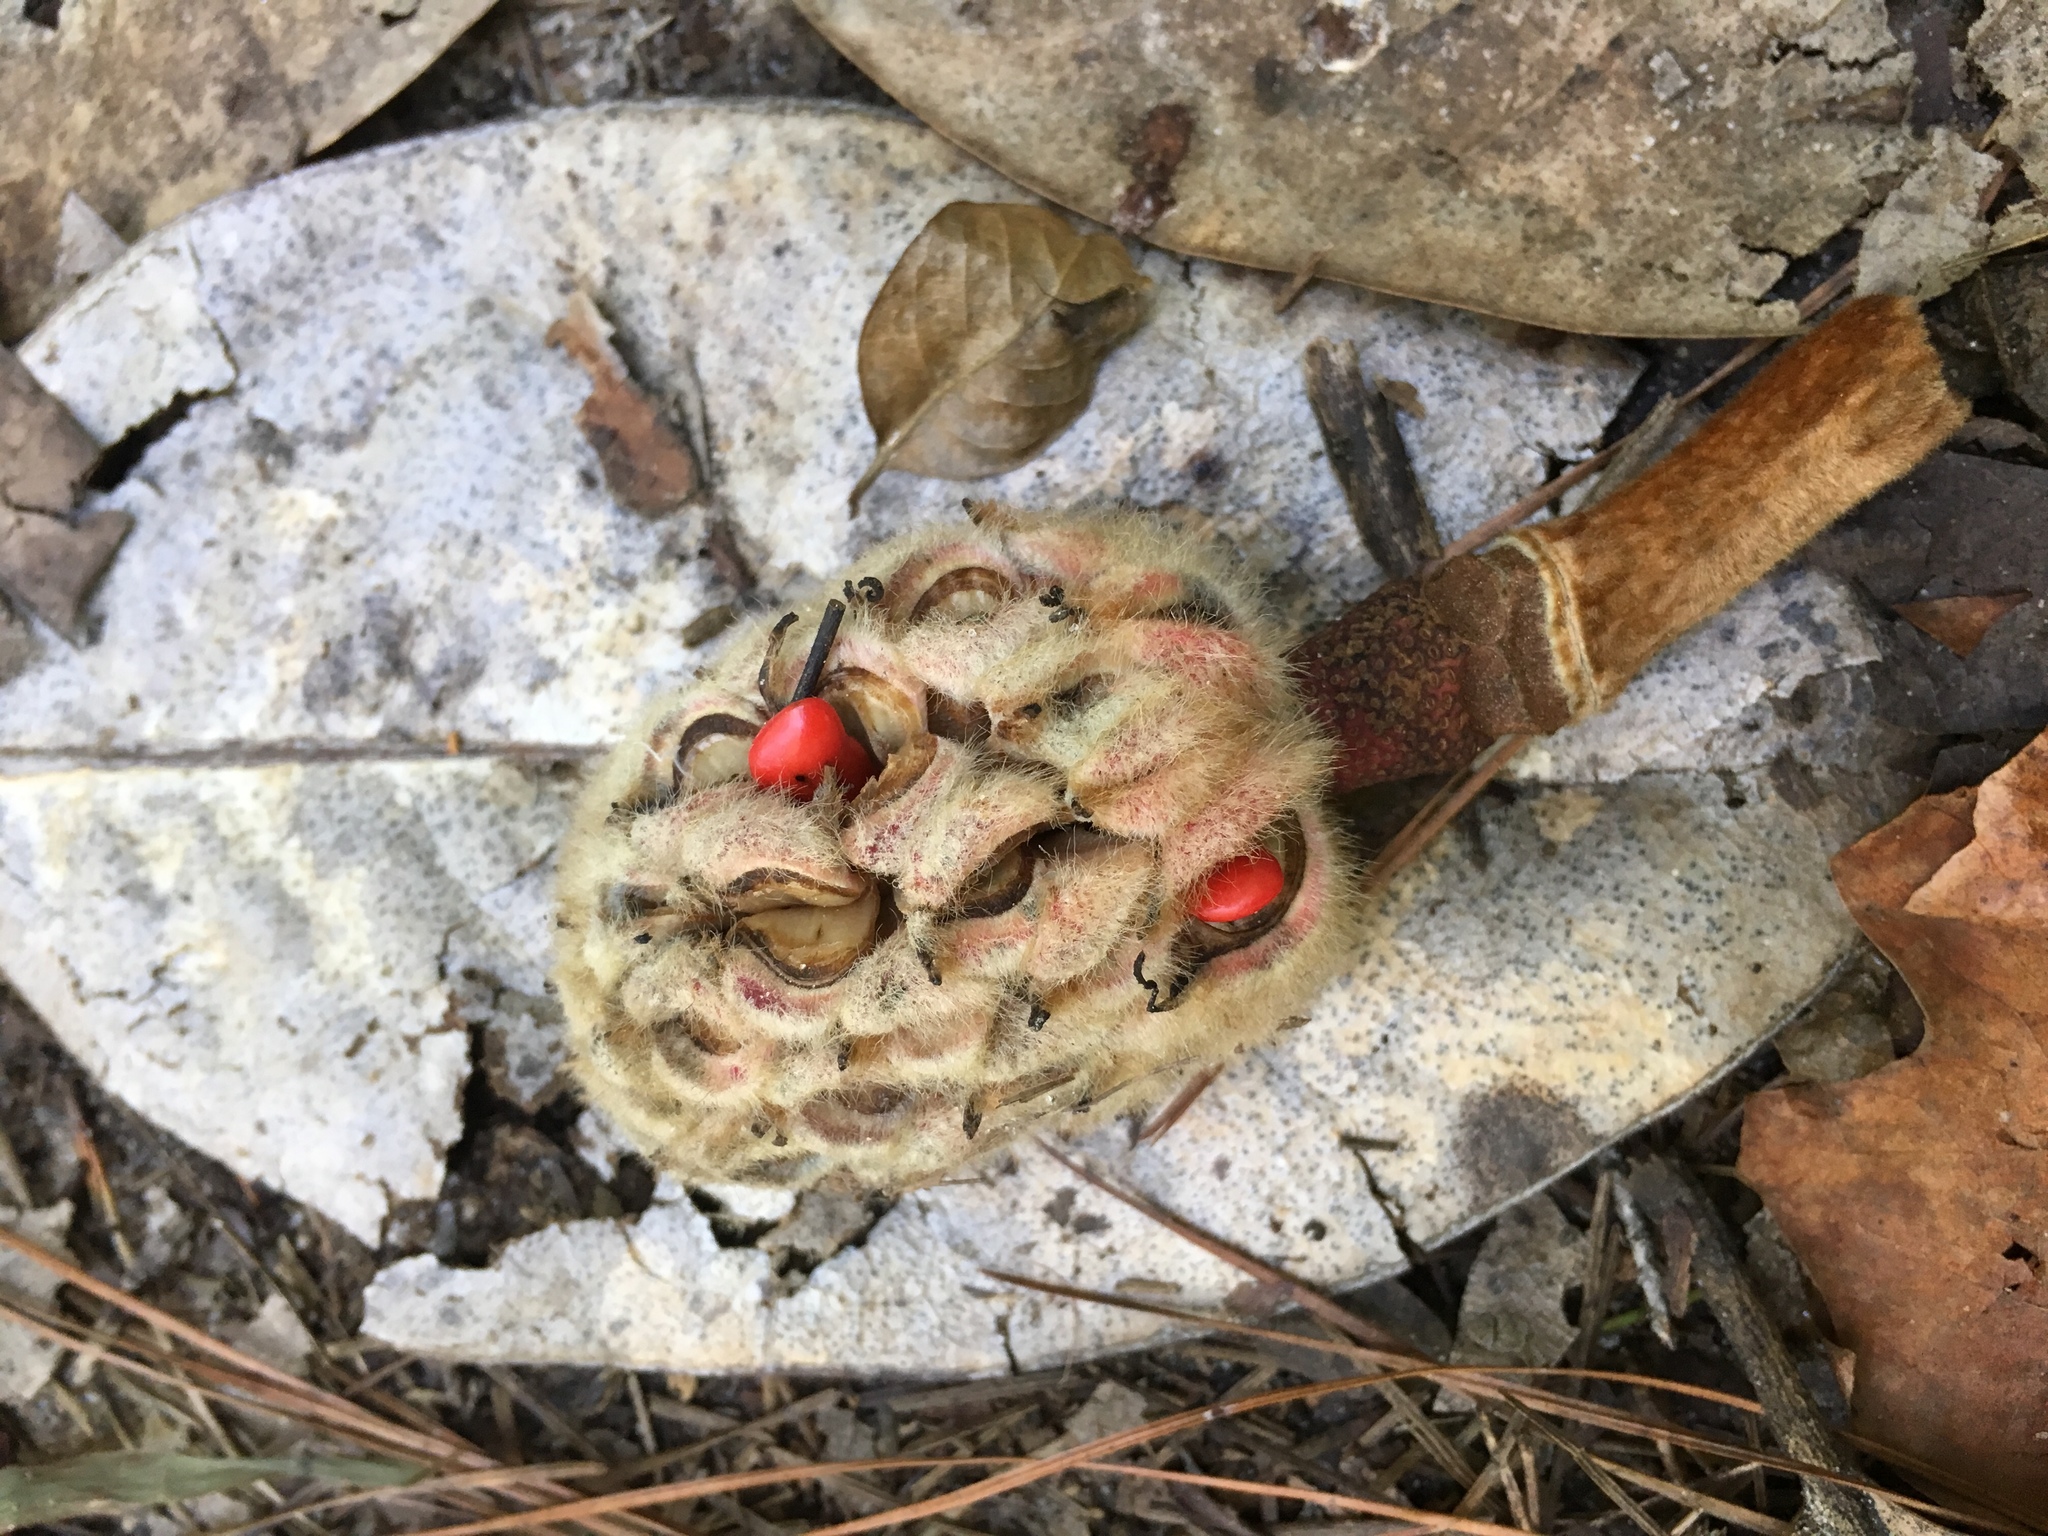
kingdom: Plantae
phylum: Tracheophyta
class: Magnoliopsida
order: Magnoliales
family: Magnoliaceae
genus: Magnolia
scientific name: Magnolia grandiflora
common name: Southern magnolia
